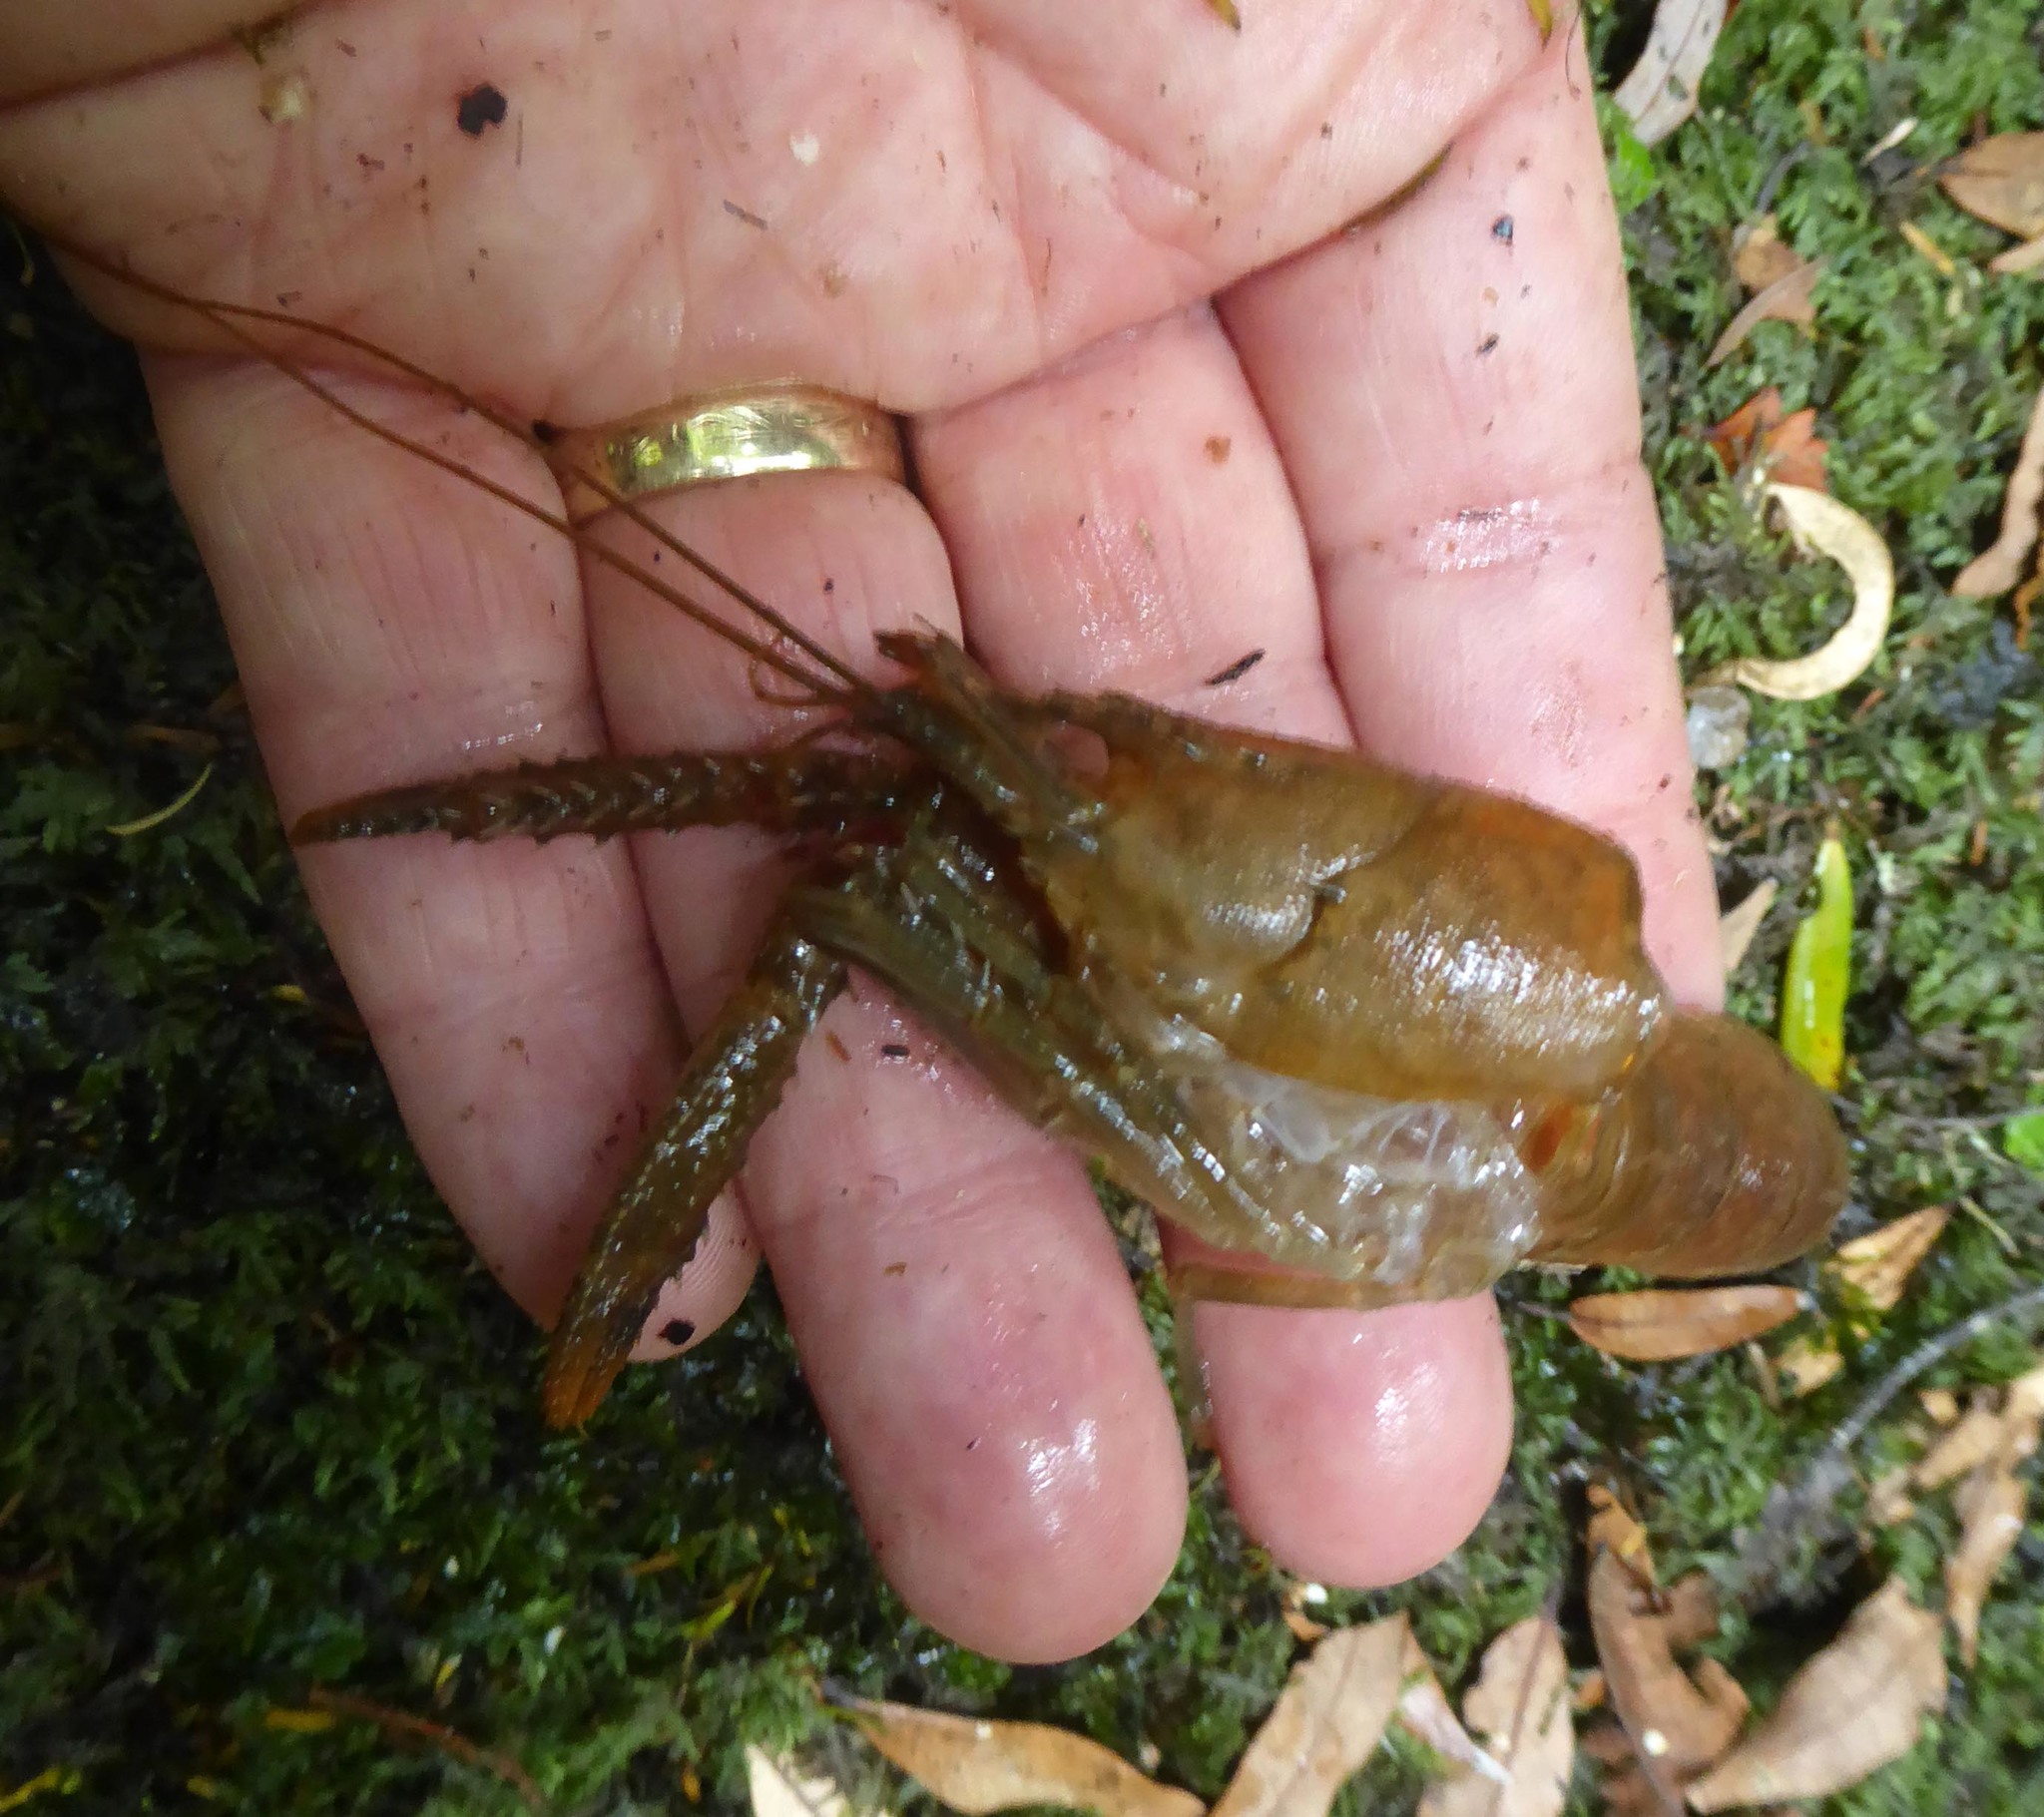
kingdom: Animalia
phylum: Arthropoda
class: Malacostraca
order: Decapoda
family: Parastacidae
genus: Paranephrops
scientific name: Paranephrops planifrons
